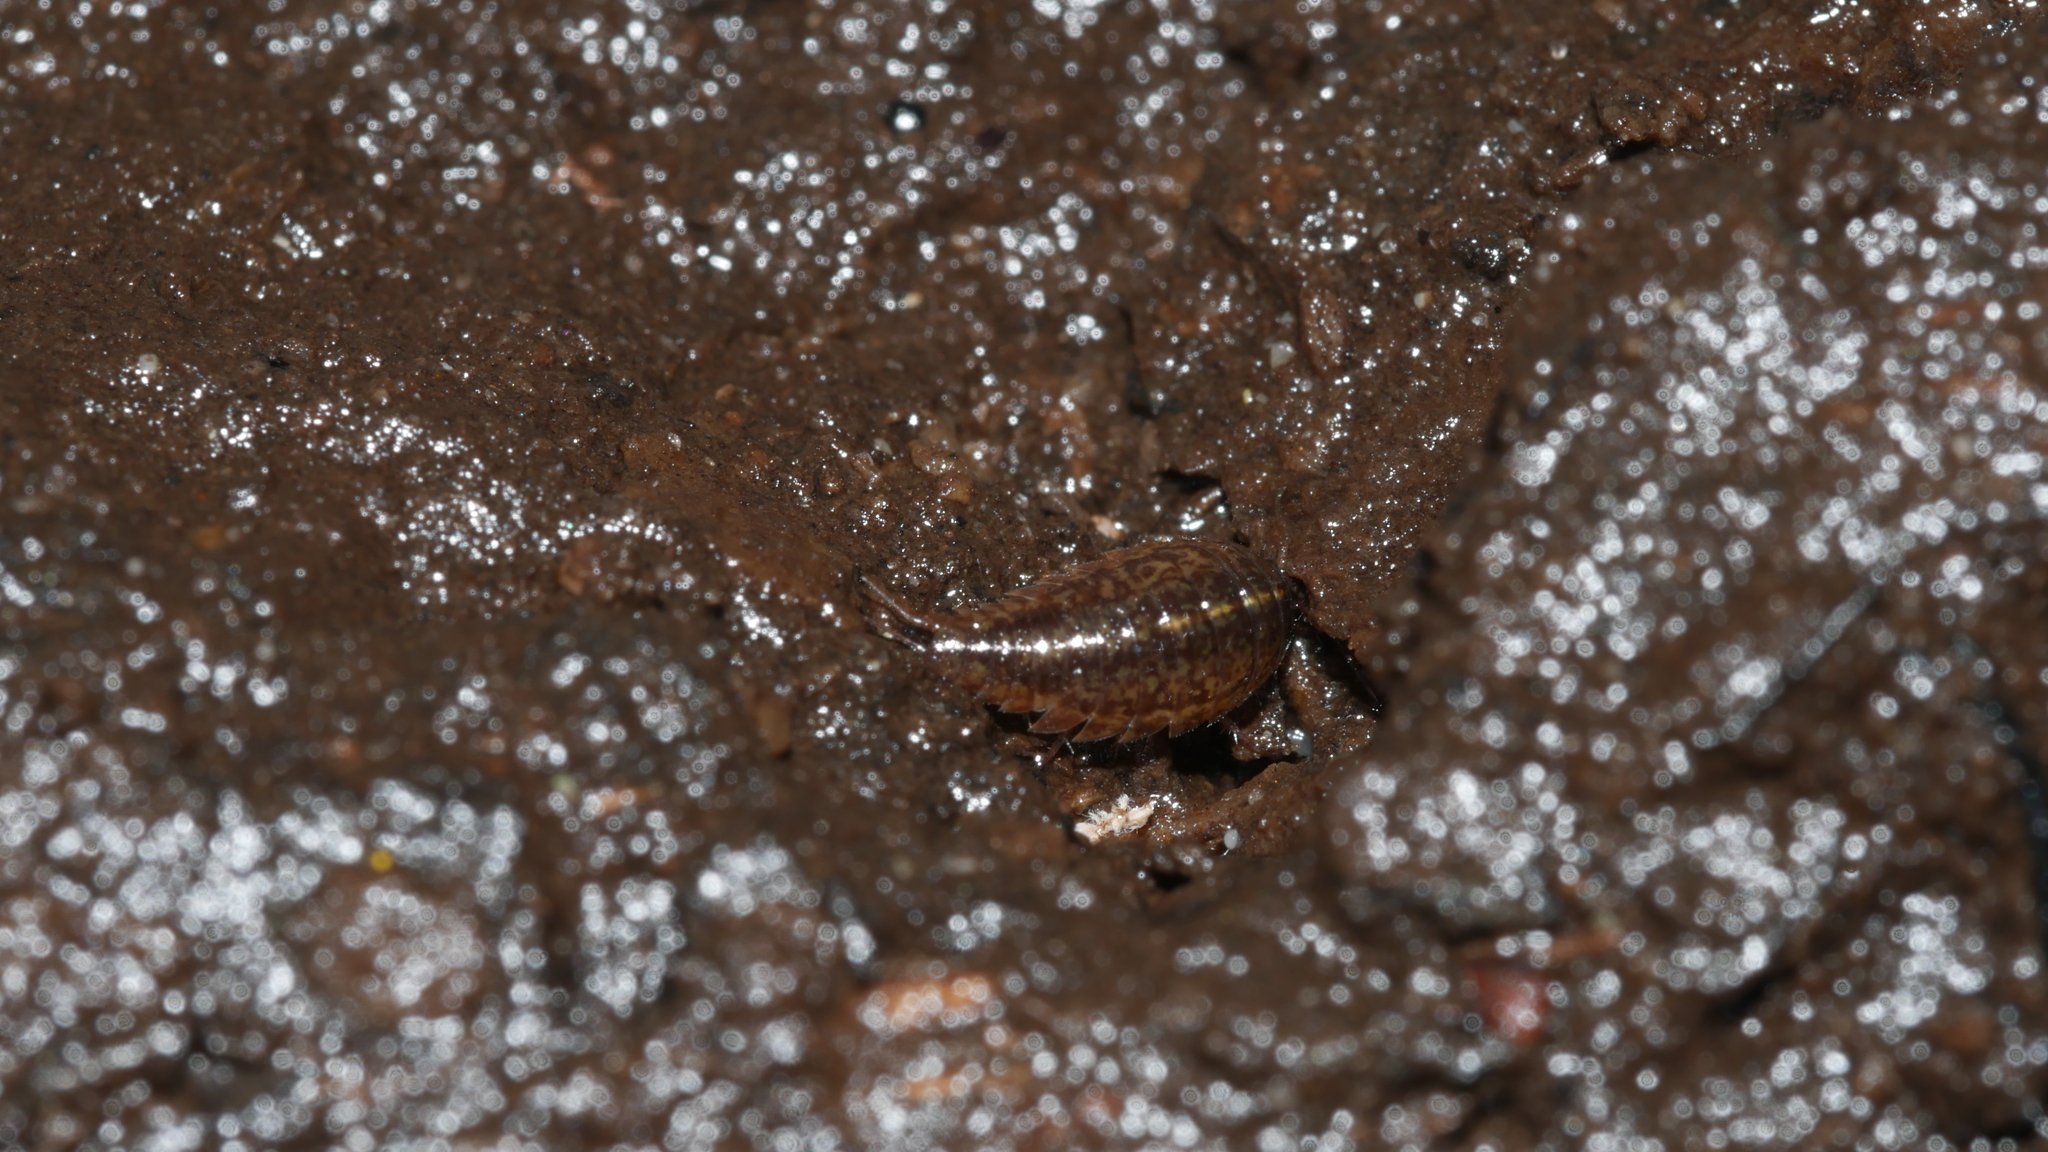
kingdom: Animalia
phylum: Arthropoda
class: Malacostraca
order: Isopoda
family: Ligiidae
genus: Ligidium
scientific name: Ligidium elrodii
